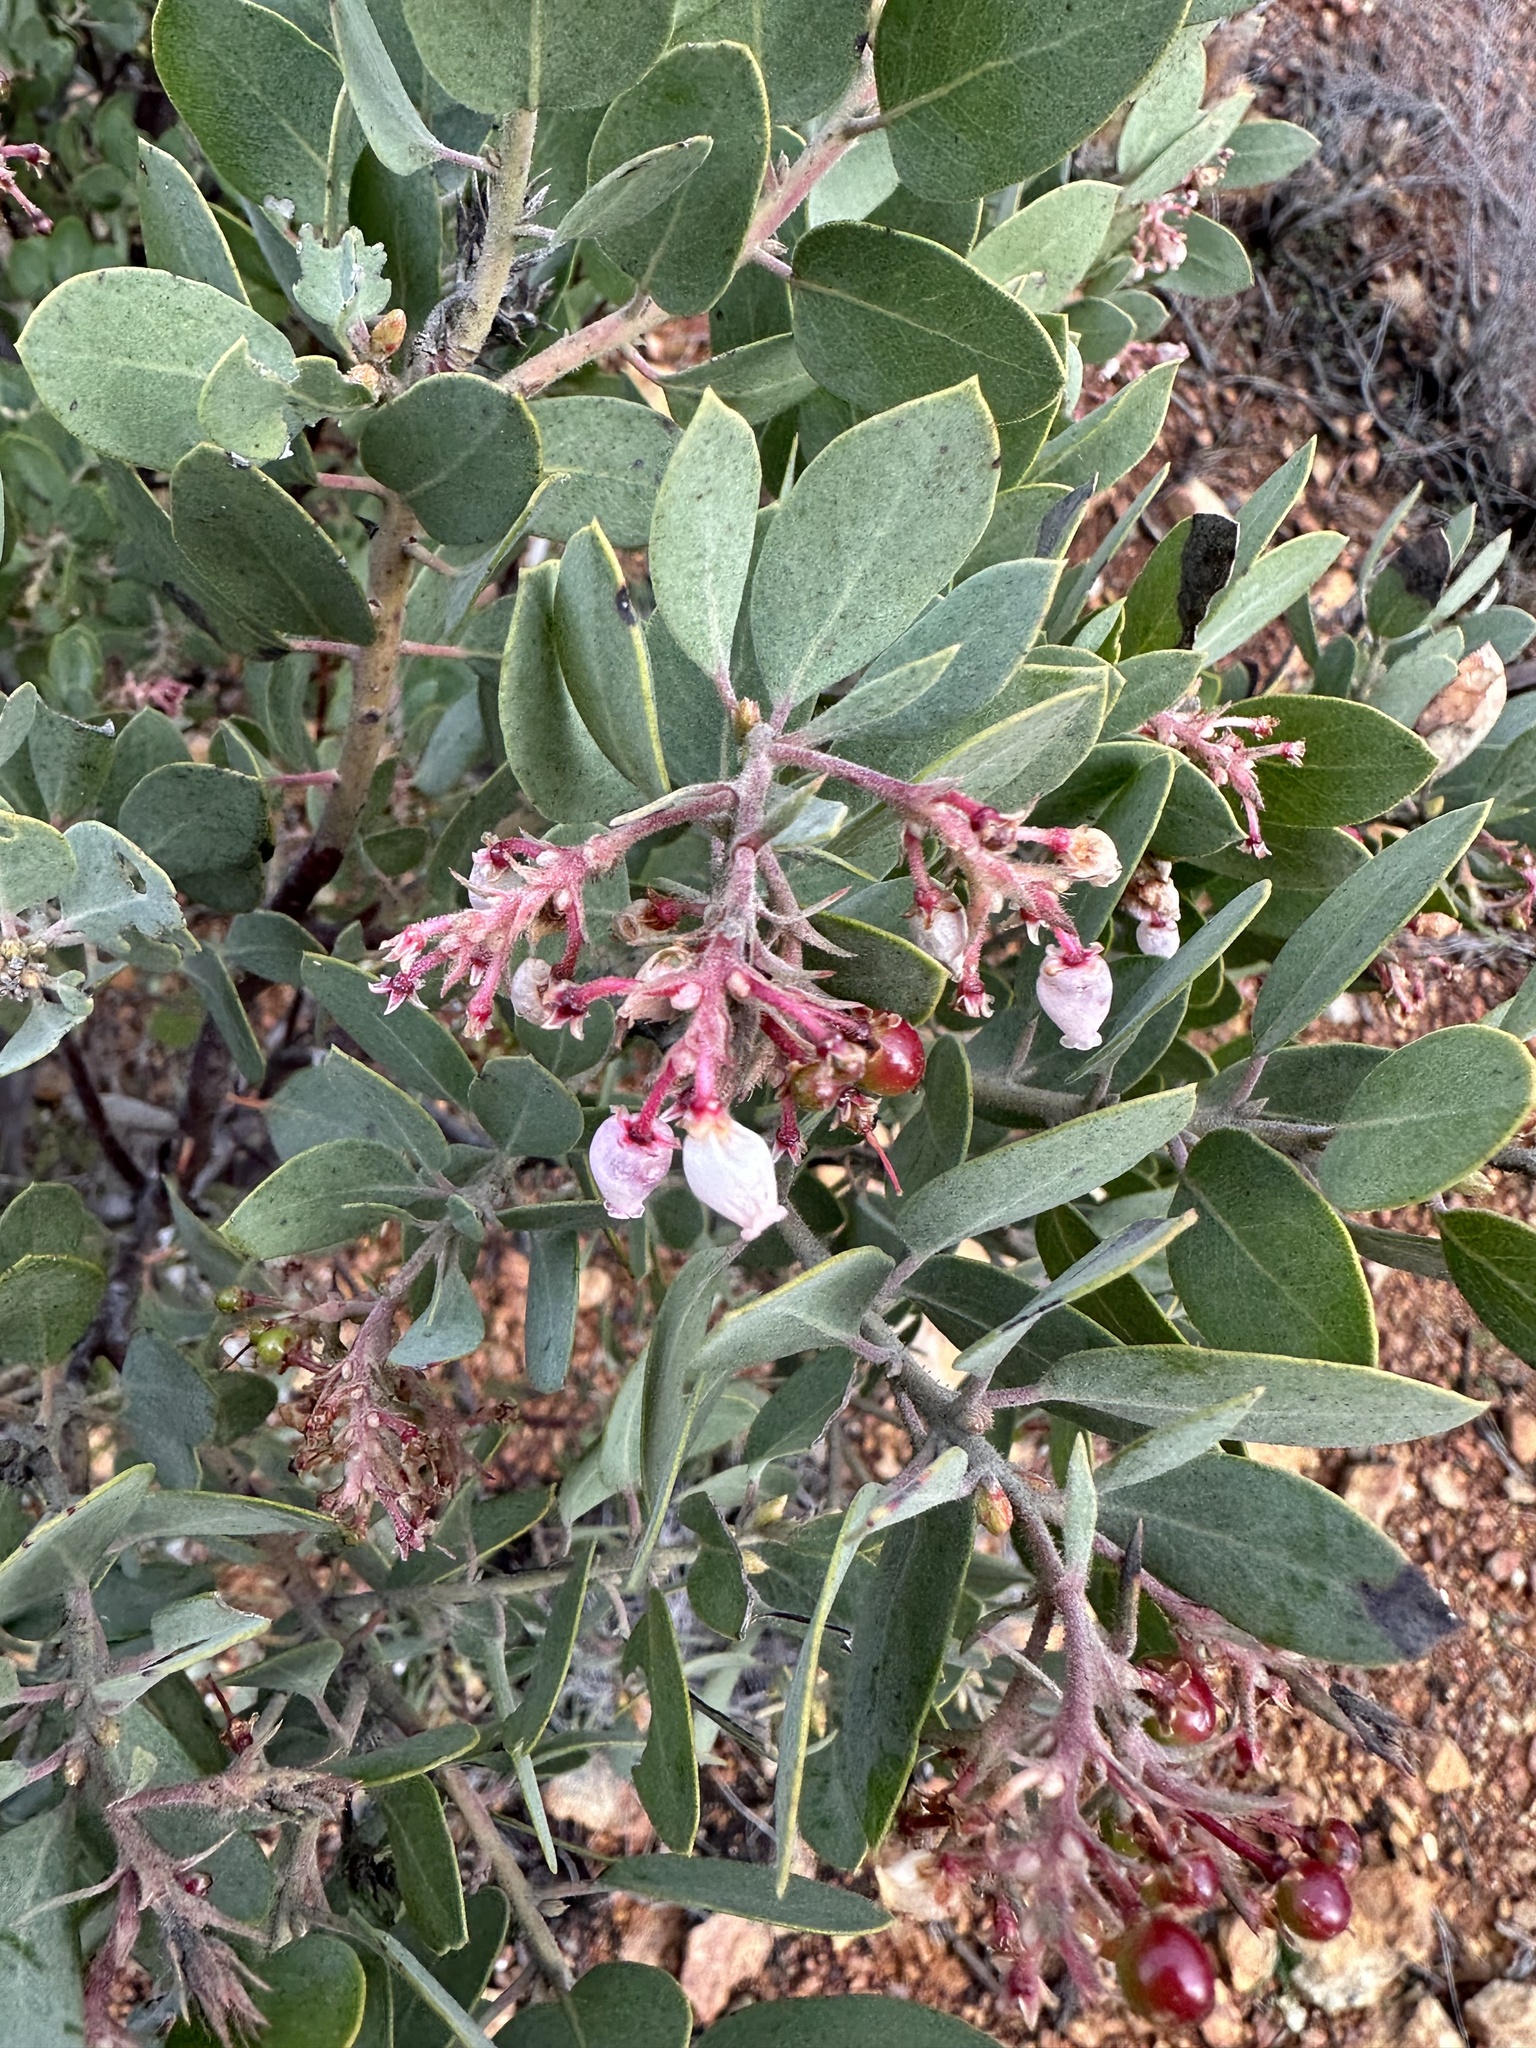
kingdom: Plantae
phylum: Tracheophyta
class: Magnoliopsida
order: Ericales
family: Ericaceae
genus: Arctostaphylos
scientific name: Arctostaphylos otayensis
